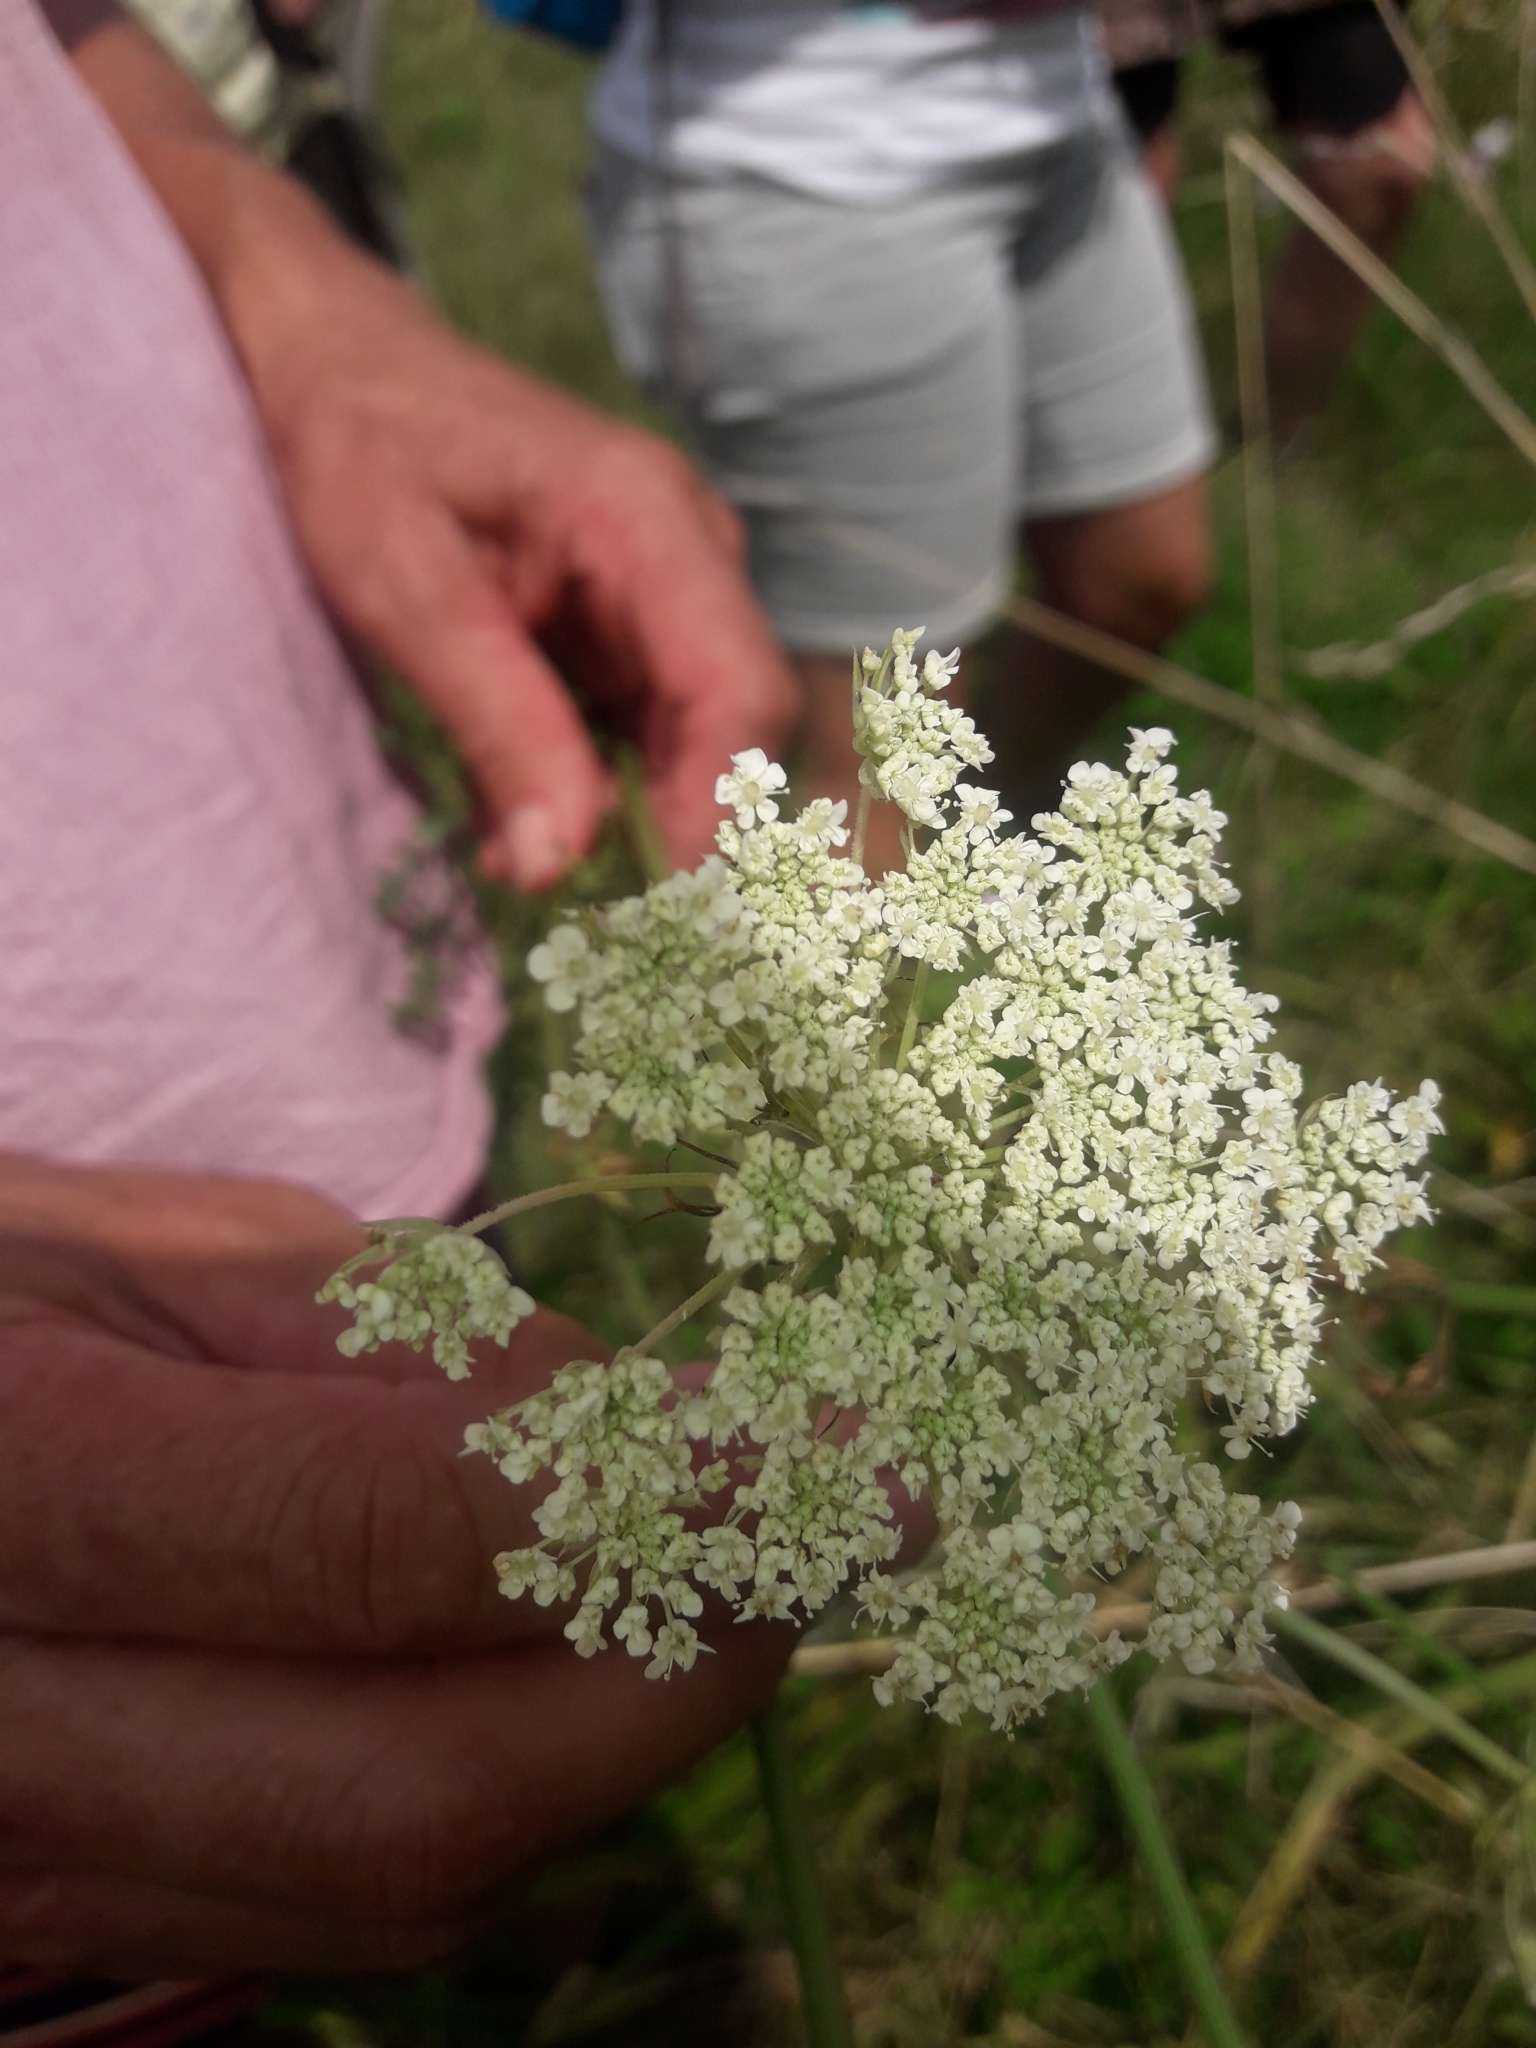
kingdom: Plantae
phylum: Tracheophyta
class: Magnoliopsida
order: Apiales
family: Apiaceae
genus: Daucus
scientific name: Daucus carota
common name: Wild carrot
